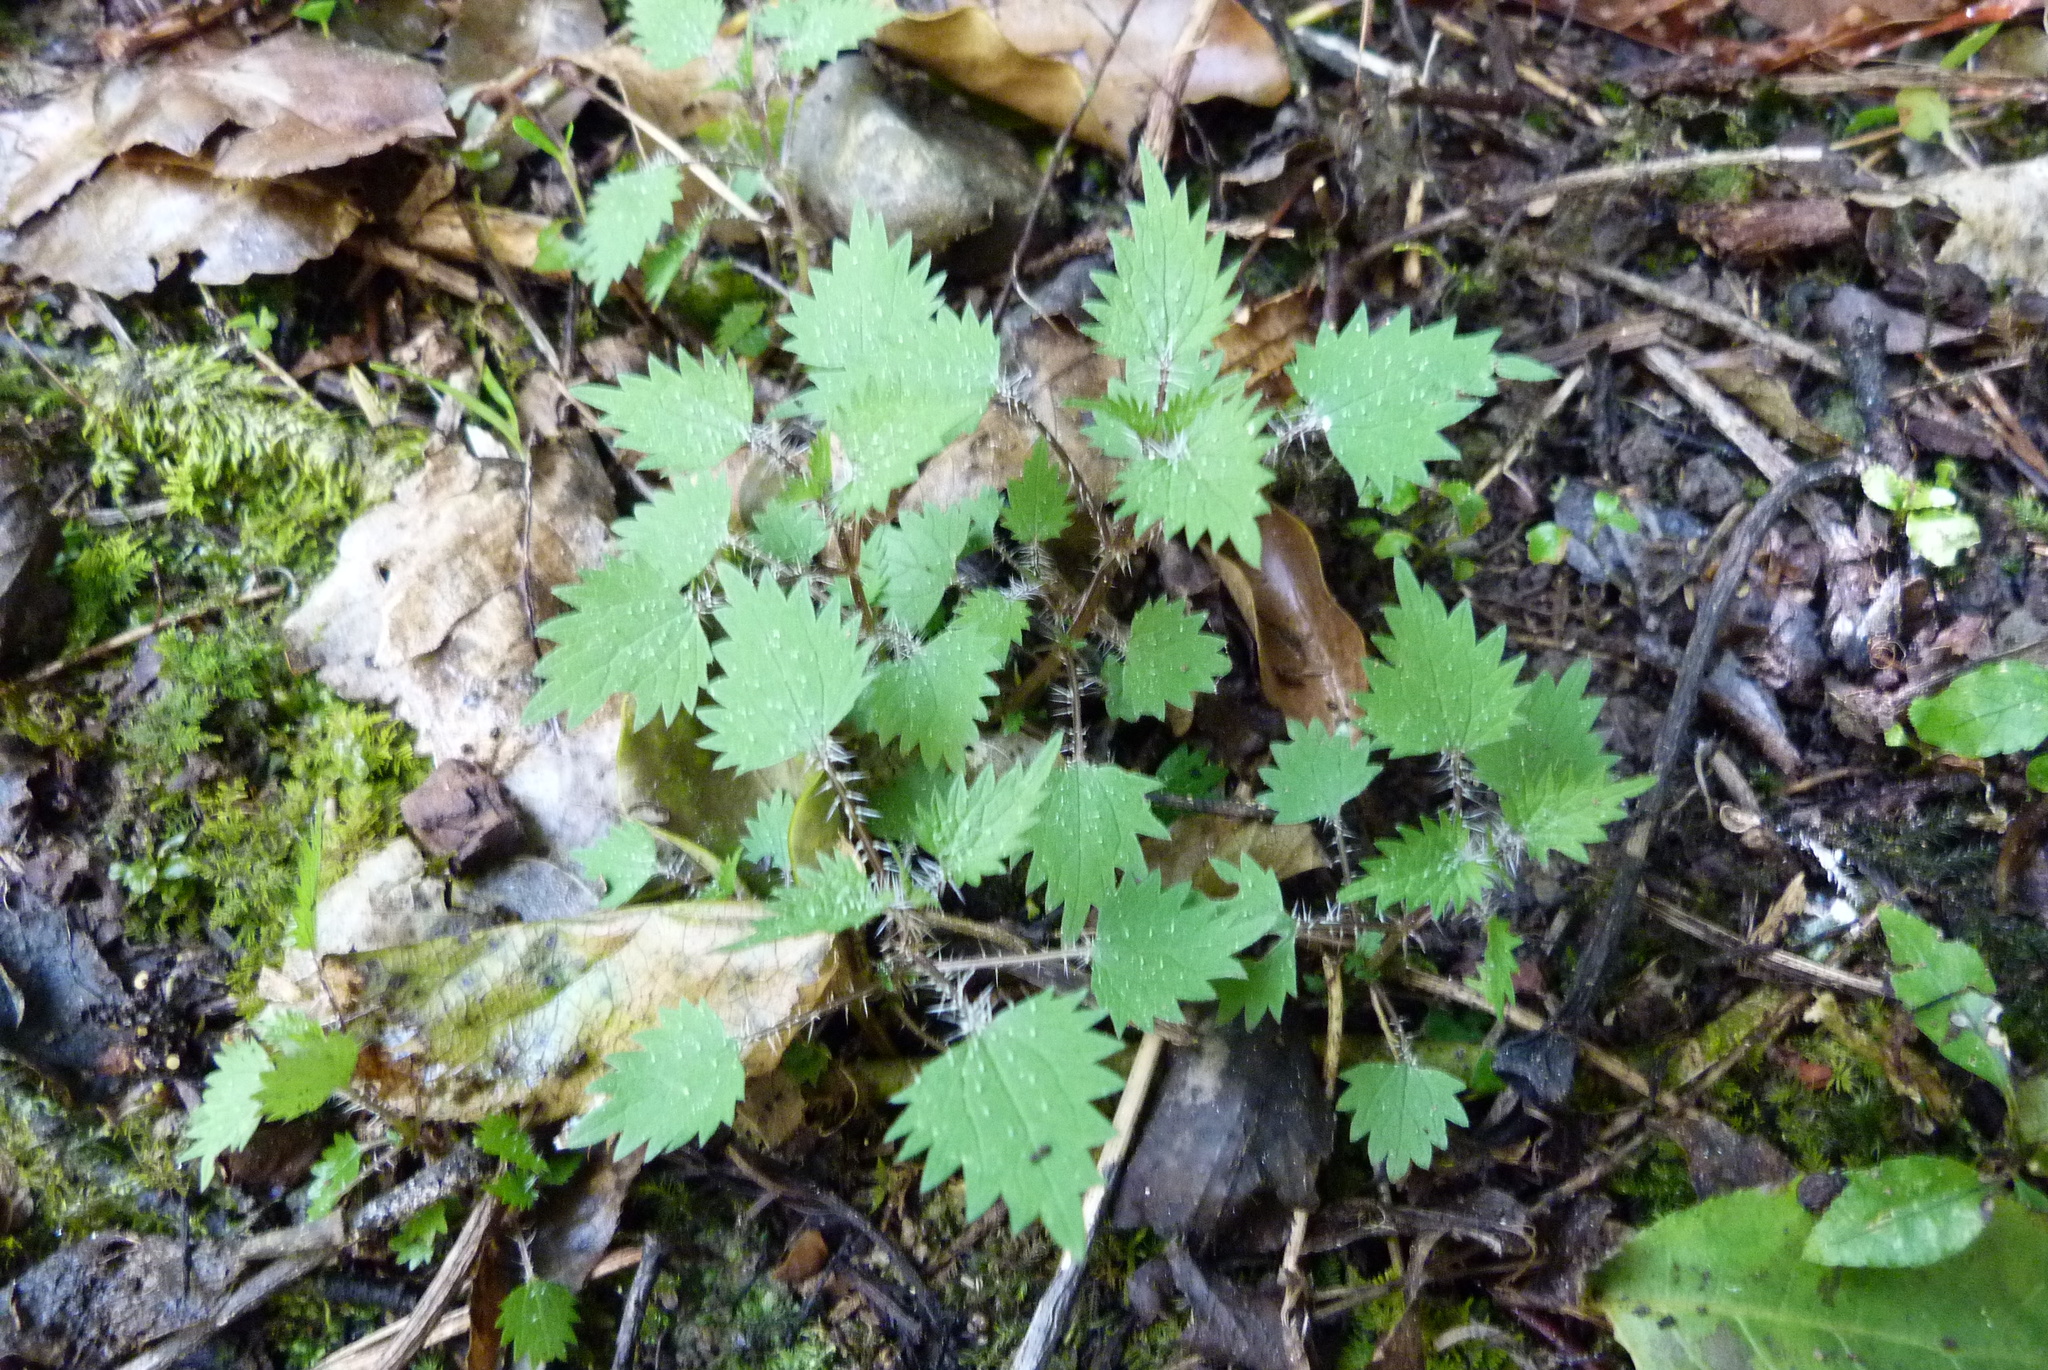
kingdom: Plantae
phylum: Tracheophyta
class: Magnoliopsida
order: Rosales
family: Urticaceae
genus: Urtica
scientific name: Urtica sykesii
